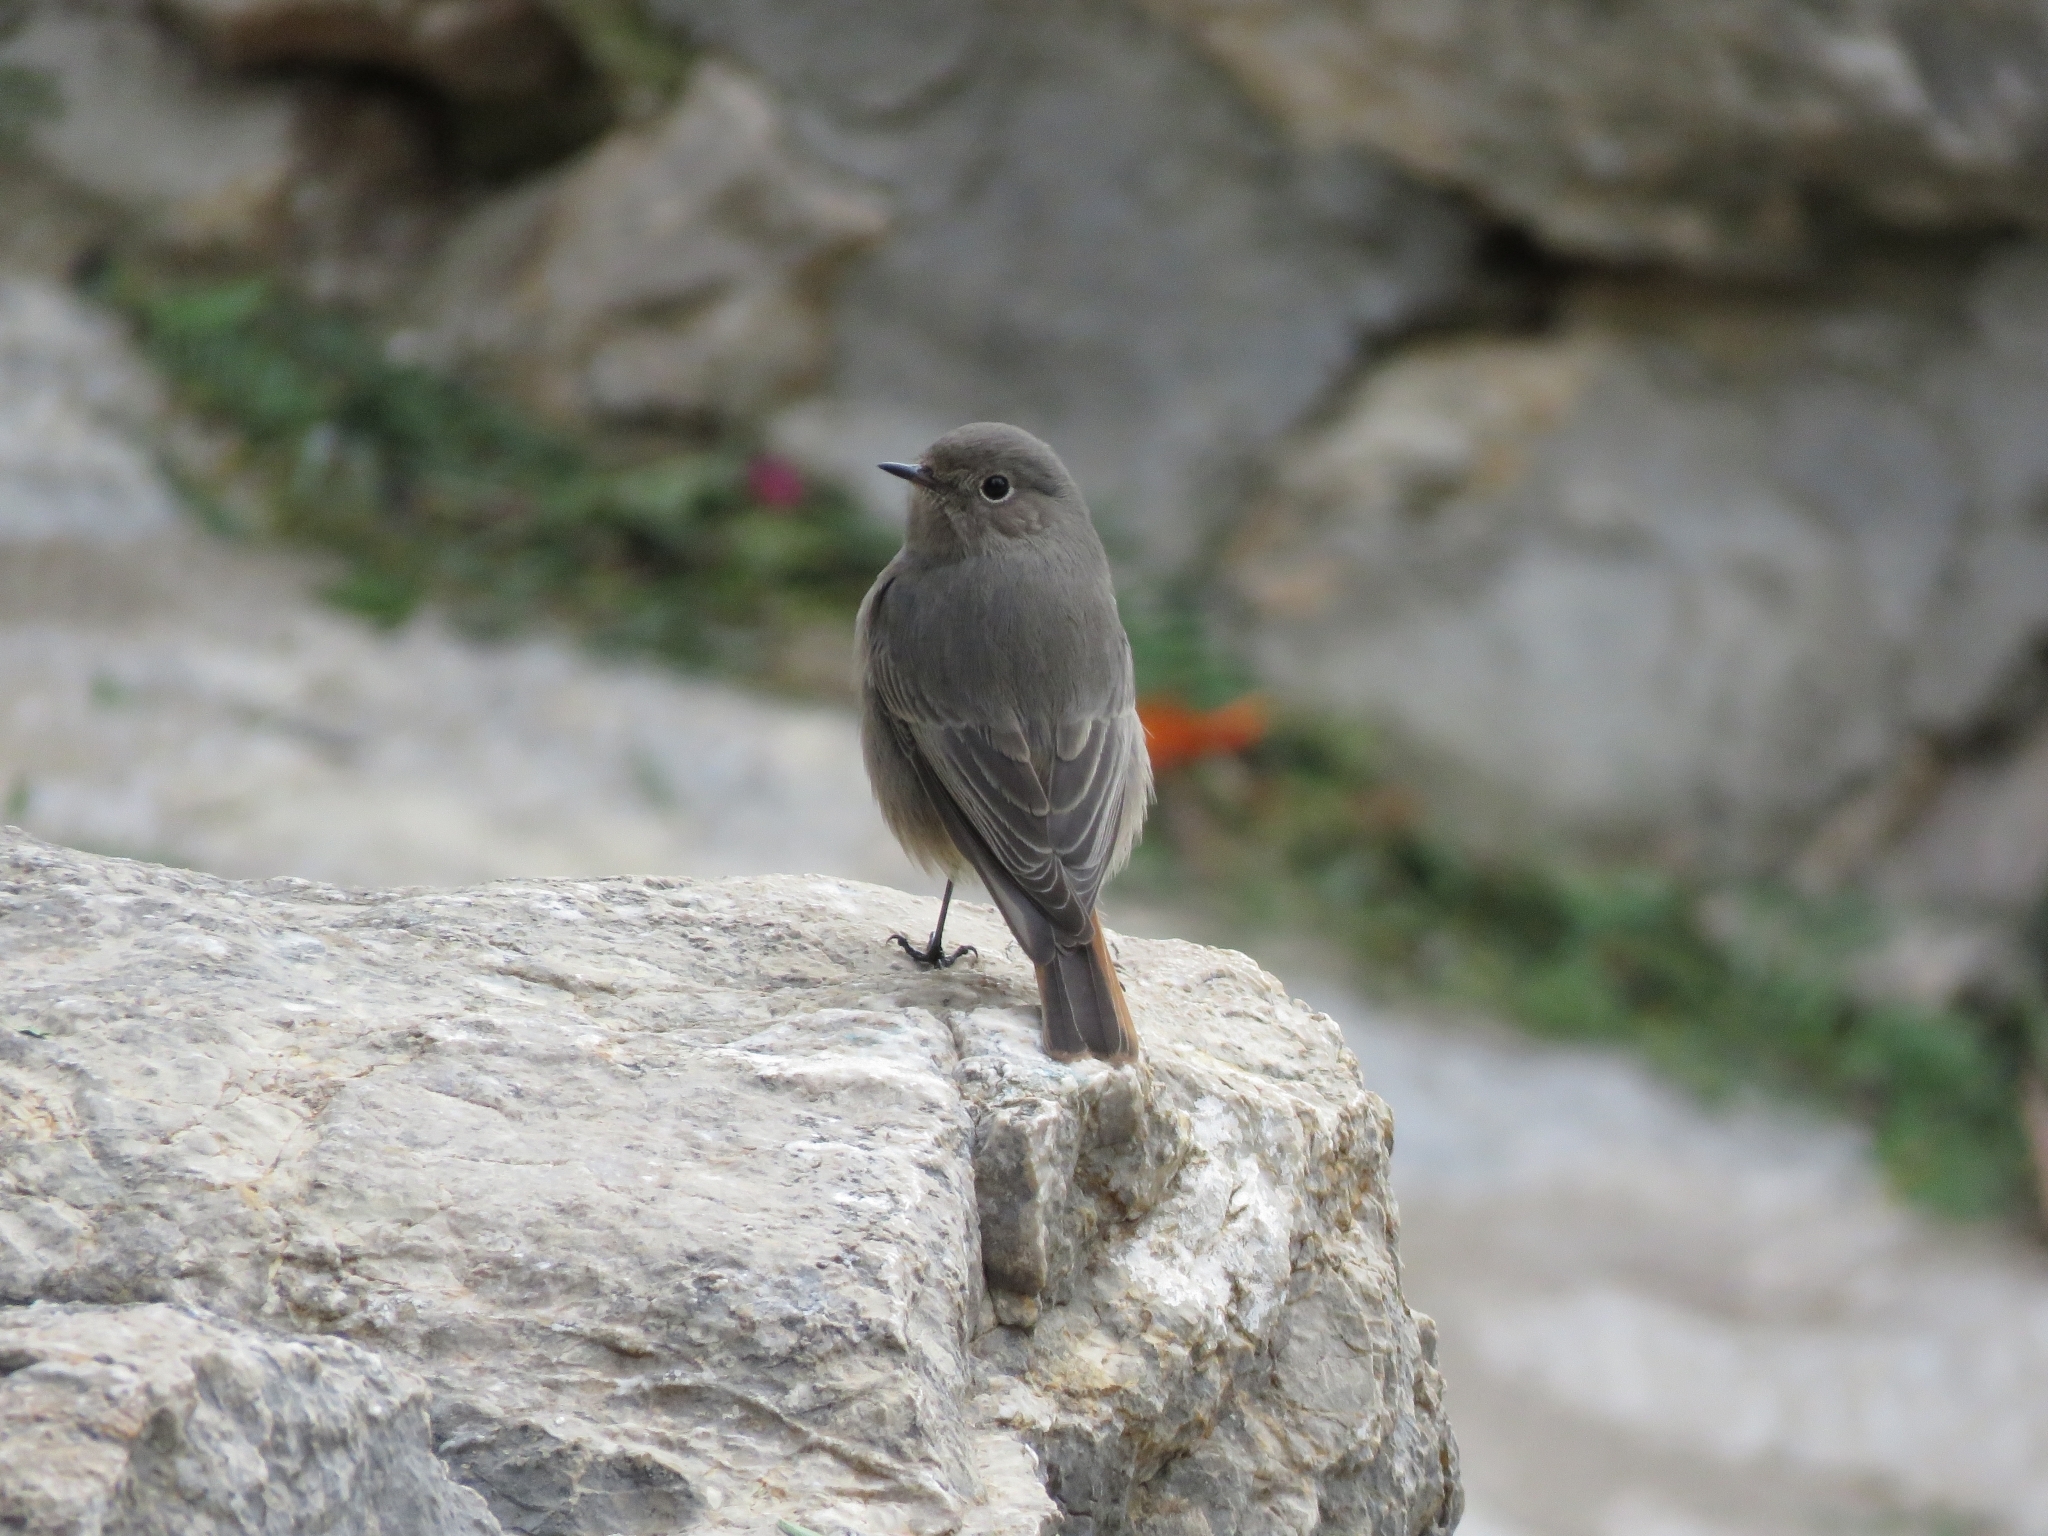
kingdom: Animalia
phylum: Chordata
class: Aves
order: Passeriformes
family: Muscicapidae
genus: Phoenicurus
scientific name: Phoenicurus ochruros
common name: Black redstart
